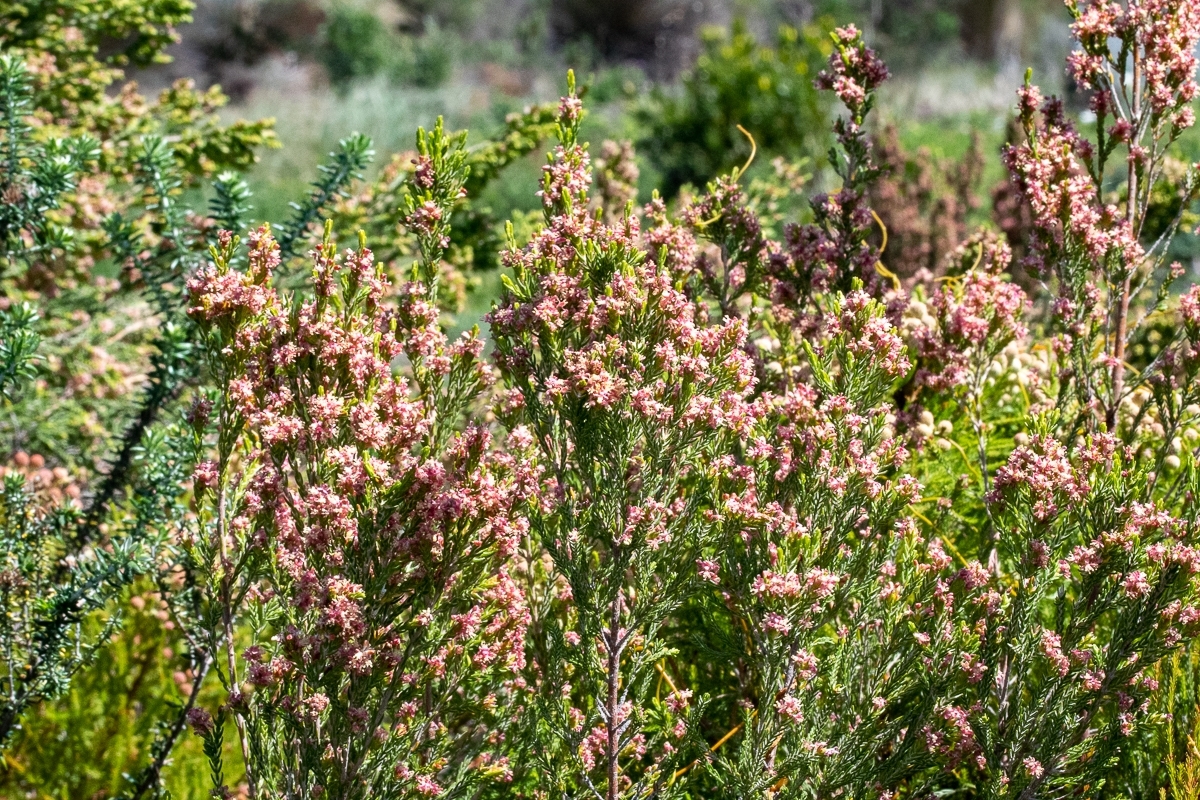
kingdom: Plantae
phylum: Tracheophyta
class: Magnoliopsida
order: Malvales
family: Thymelaeaceae
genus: Passerina
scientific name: Passerina corymbosa
